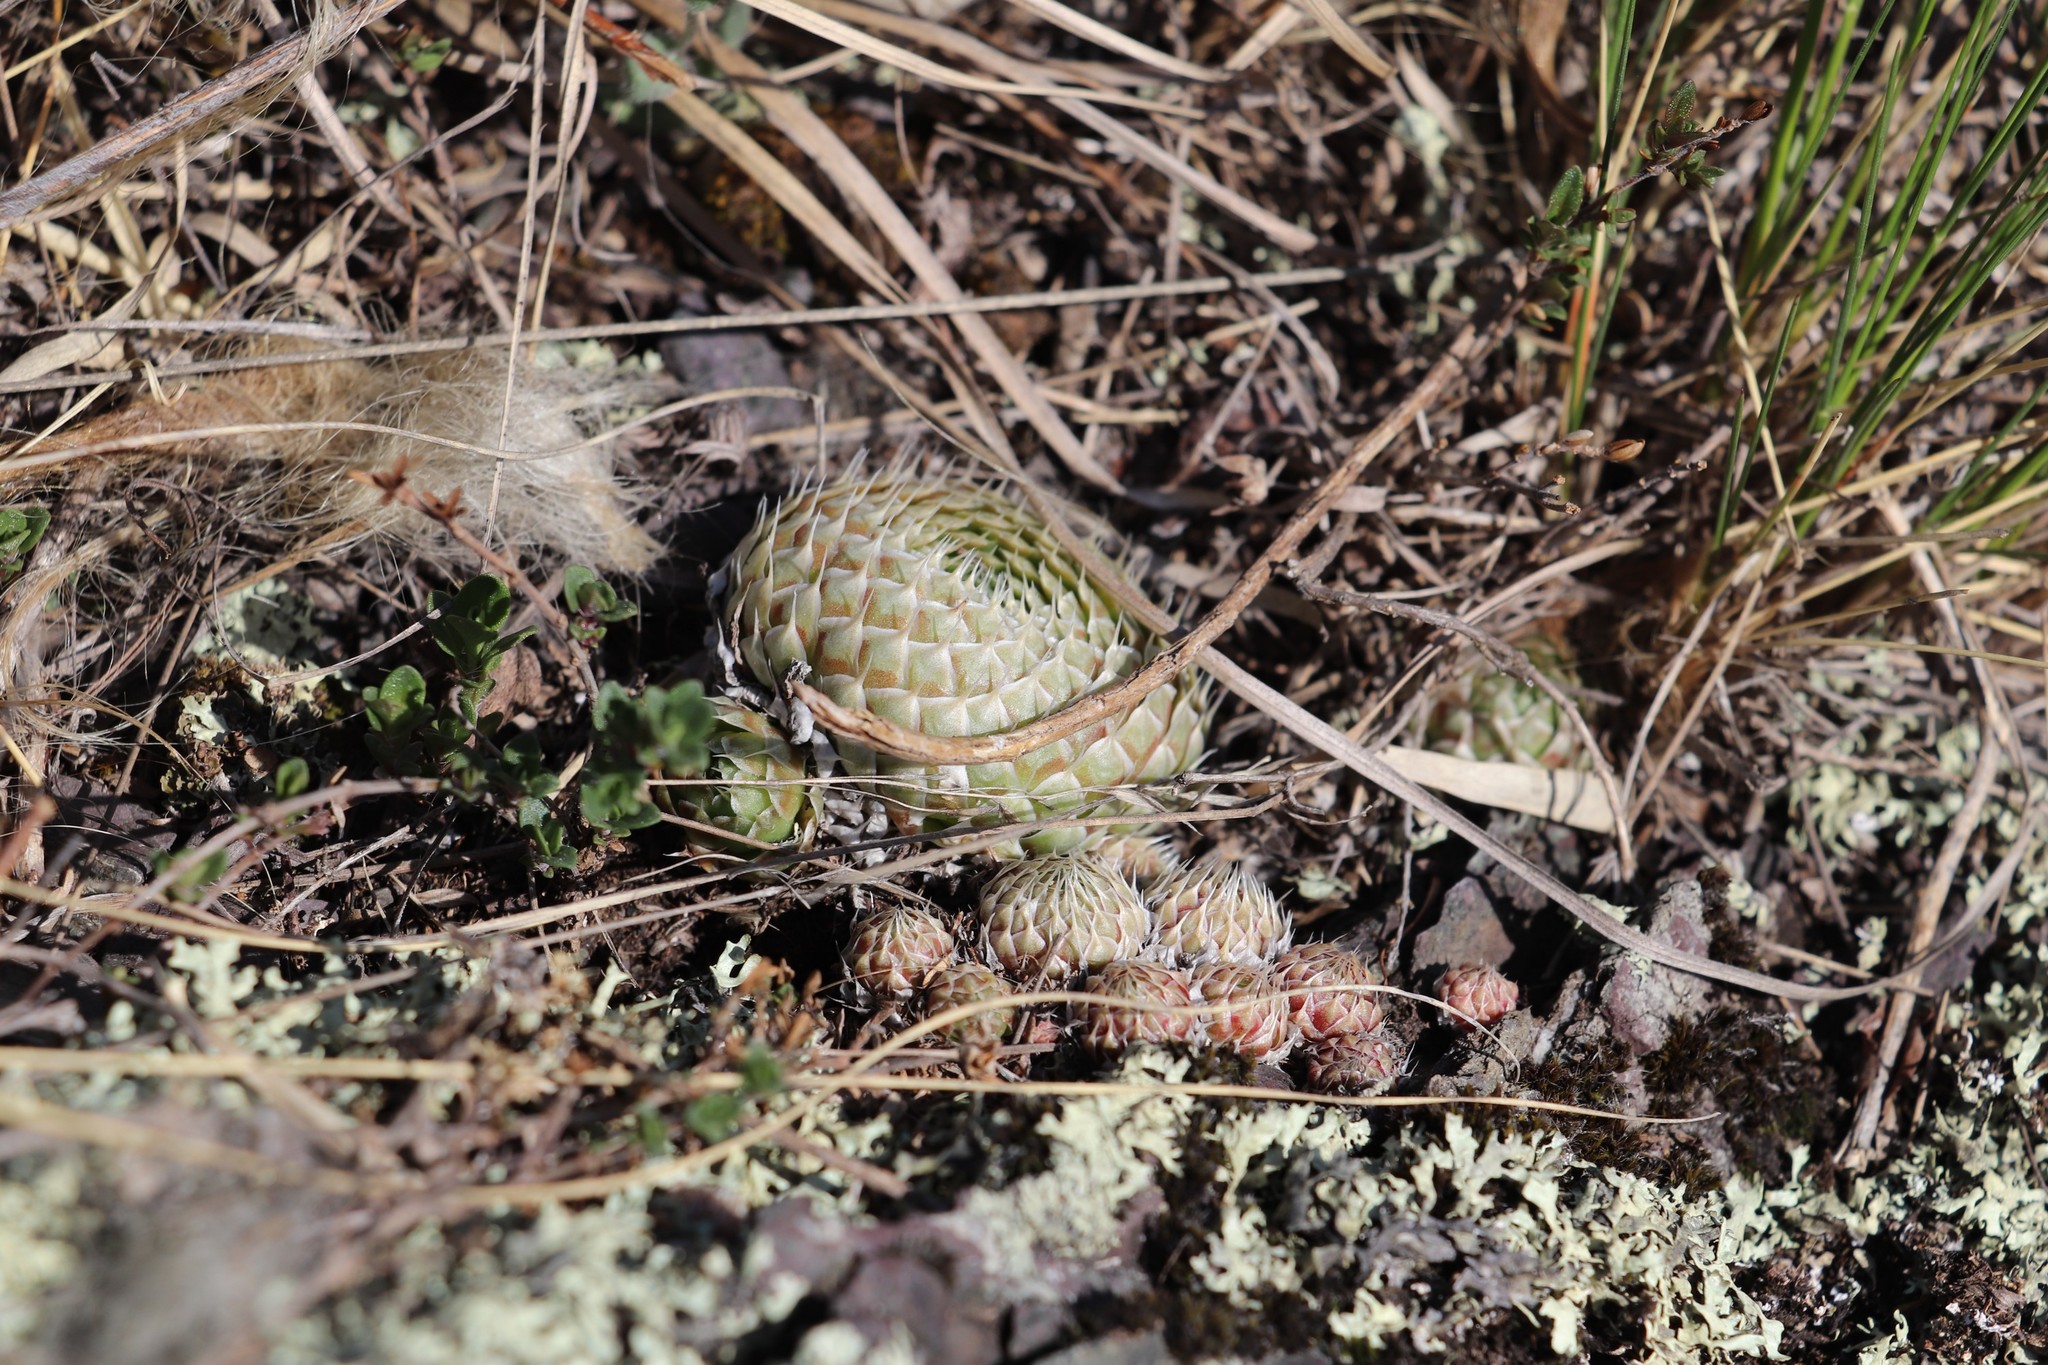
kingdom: Plantae
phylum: Tracheophyta
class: Magnoliopsida
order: Saxifragales
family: Crassulaceae
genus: Orostachys
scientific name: Orostachys spinosa
